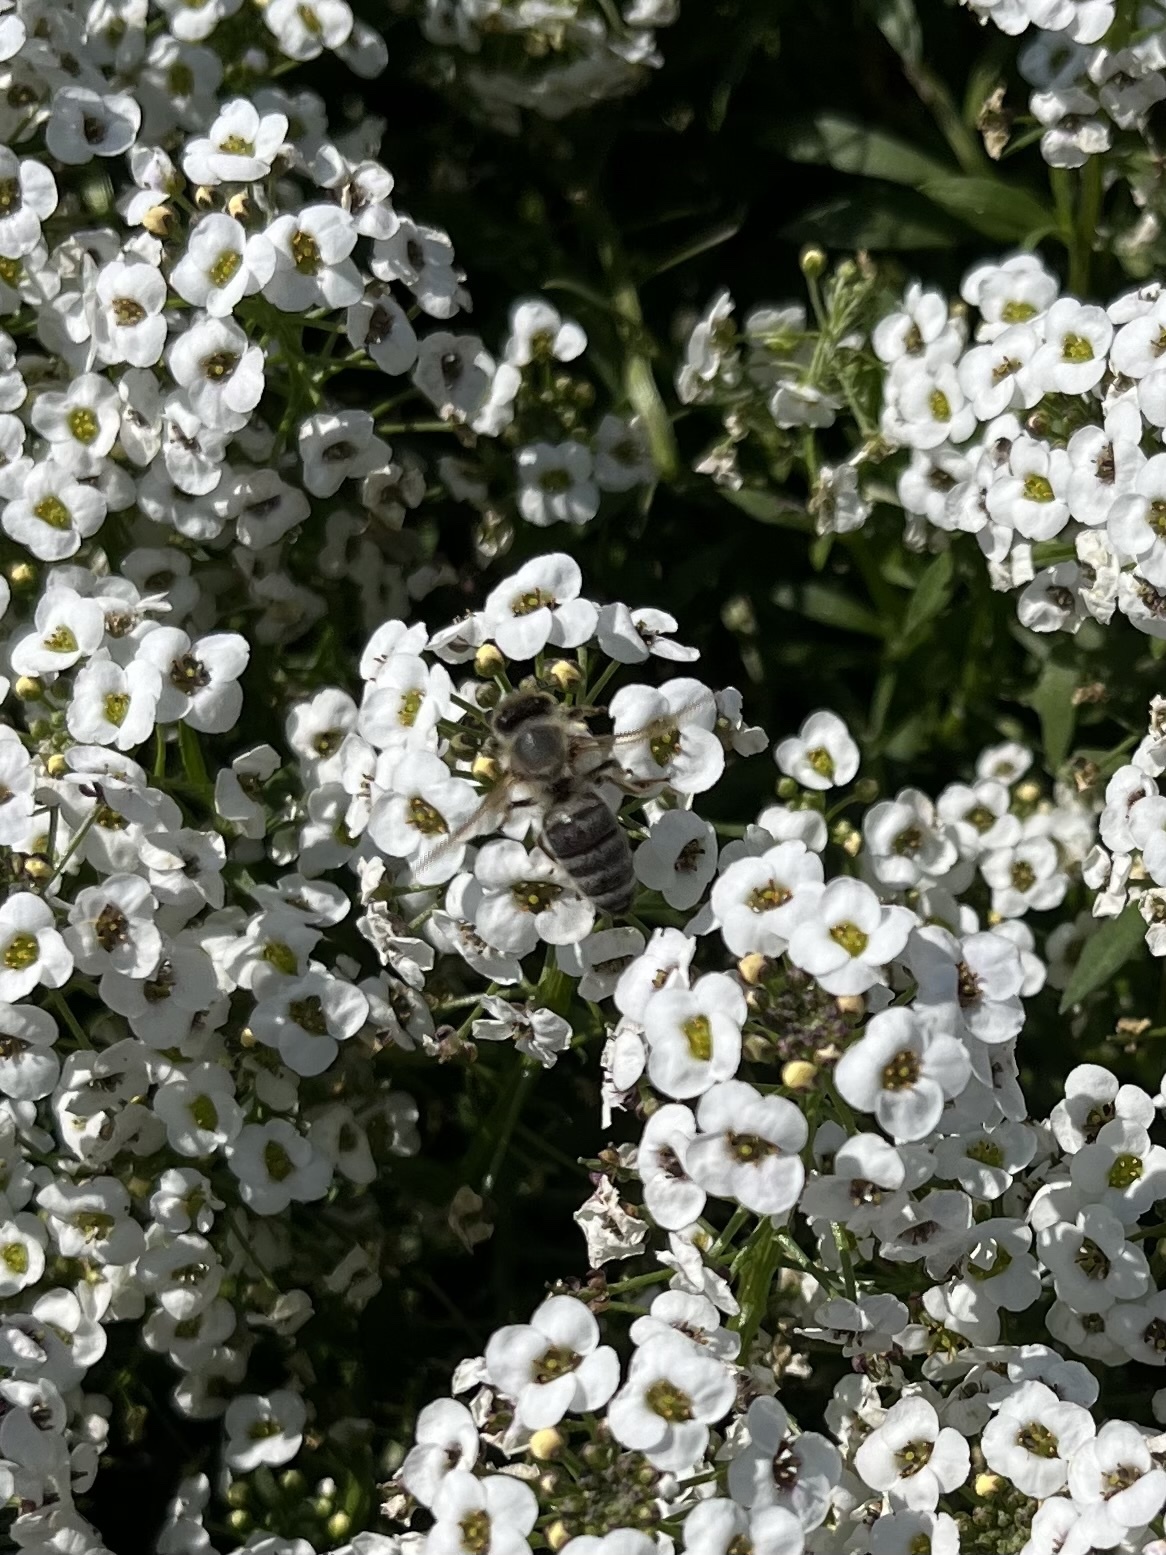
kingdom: Animalia
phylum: Arthropoda
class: Insecta
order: Hymenoptera
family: Apidae
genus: Apis
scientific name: Apis mellifera
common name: Honey bee
